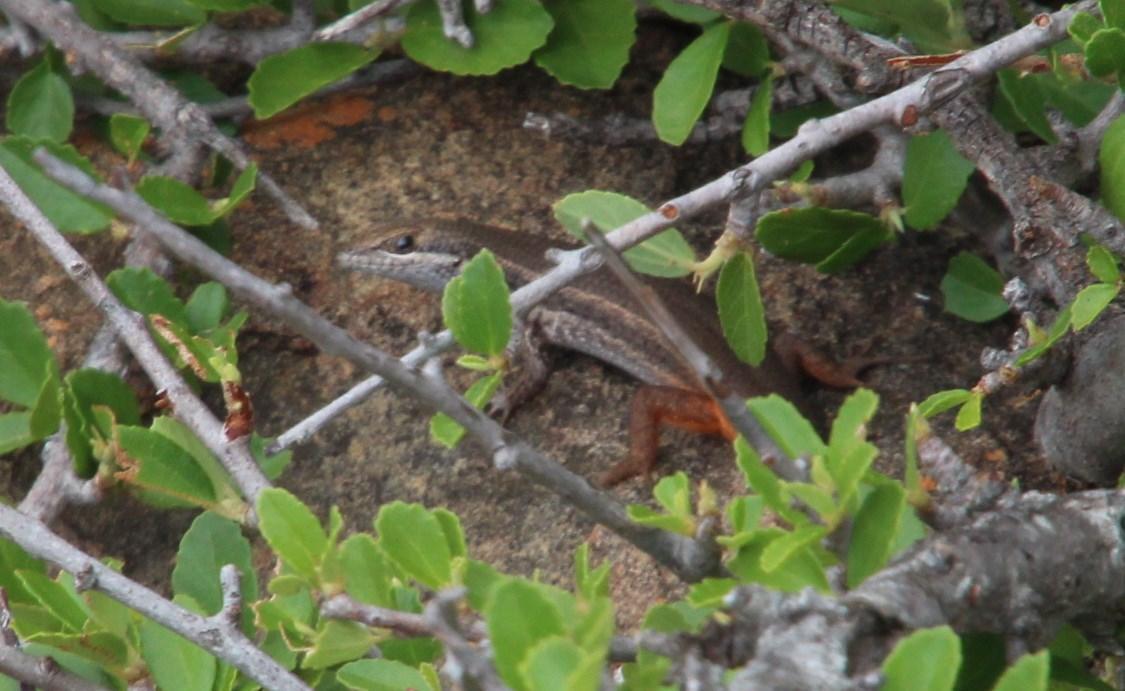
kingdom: Animalia
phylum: Chordata
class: Squamata
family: Scincidae
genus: Trachylepis
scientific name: Trachylepis variegata
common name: Variegated skink
